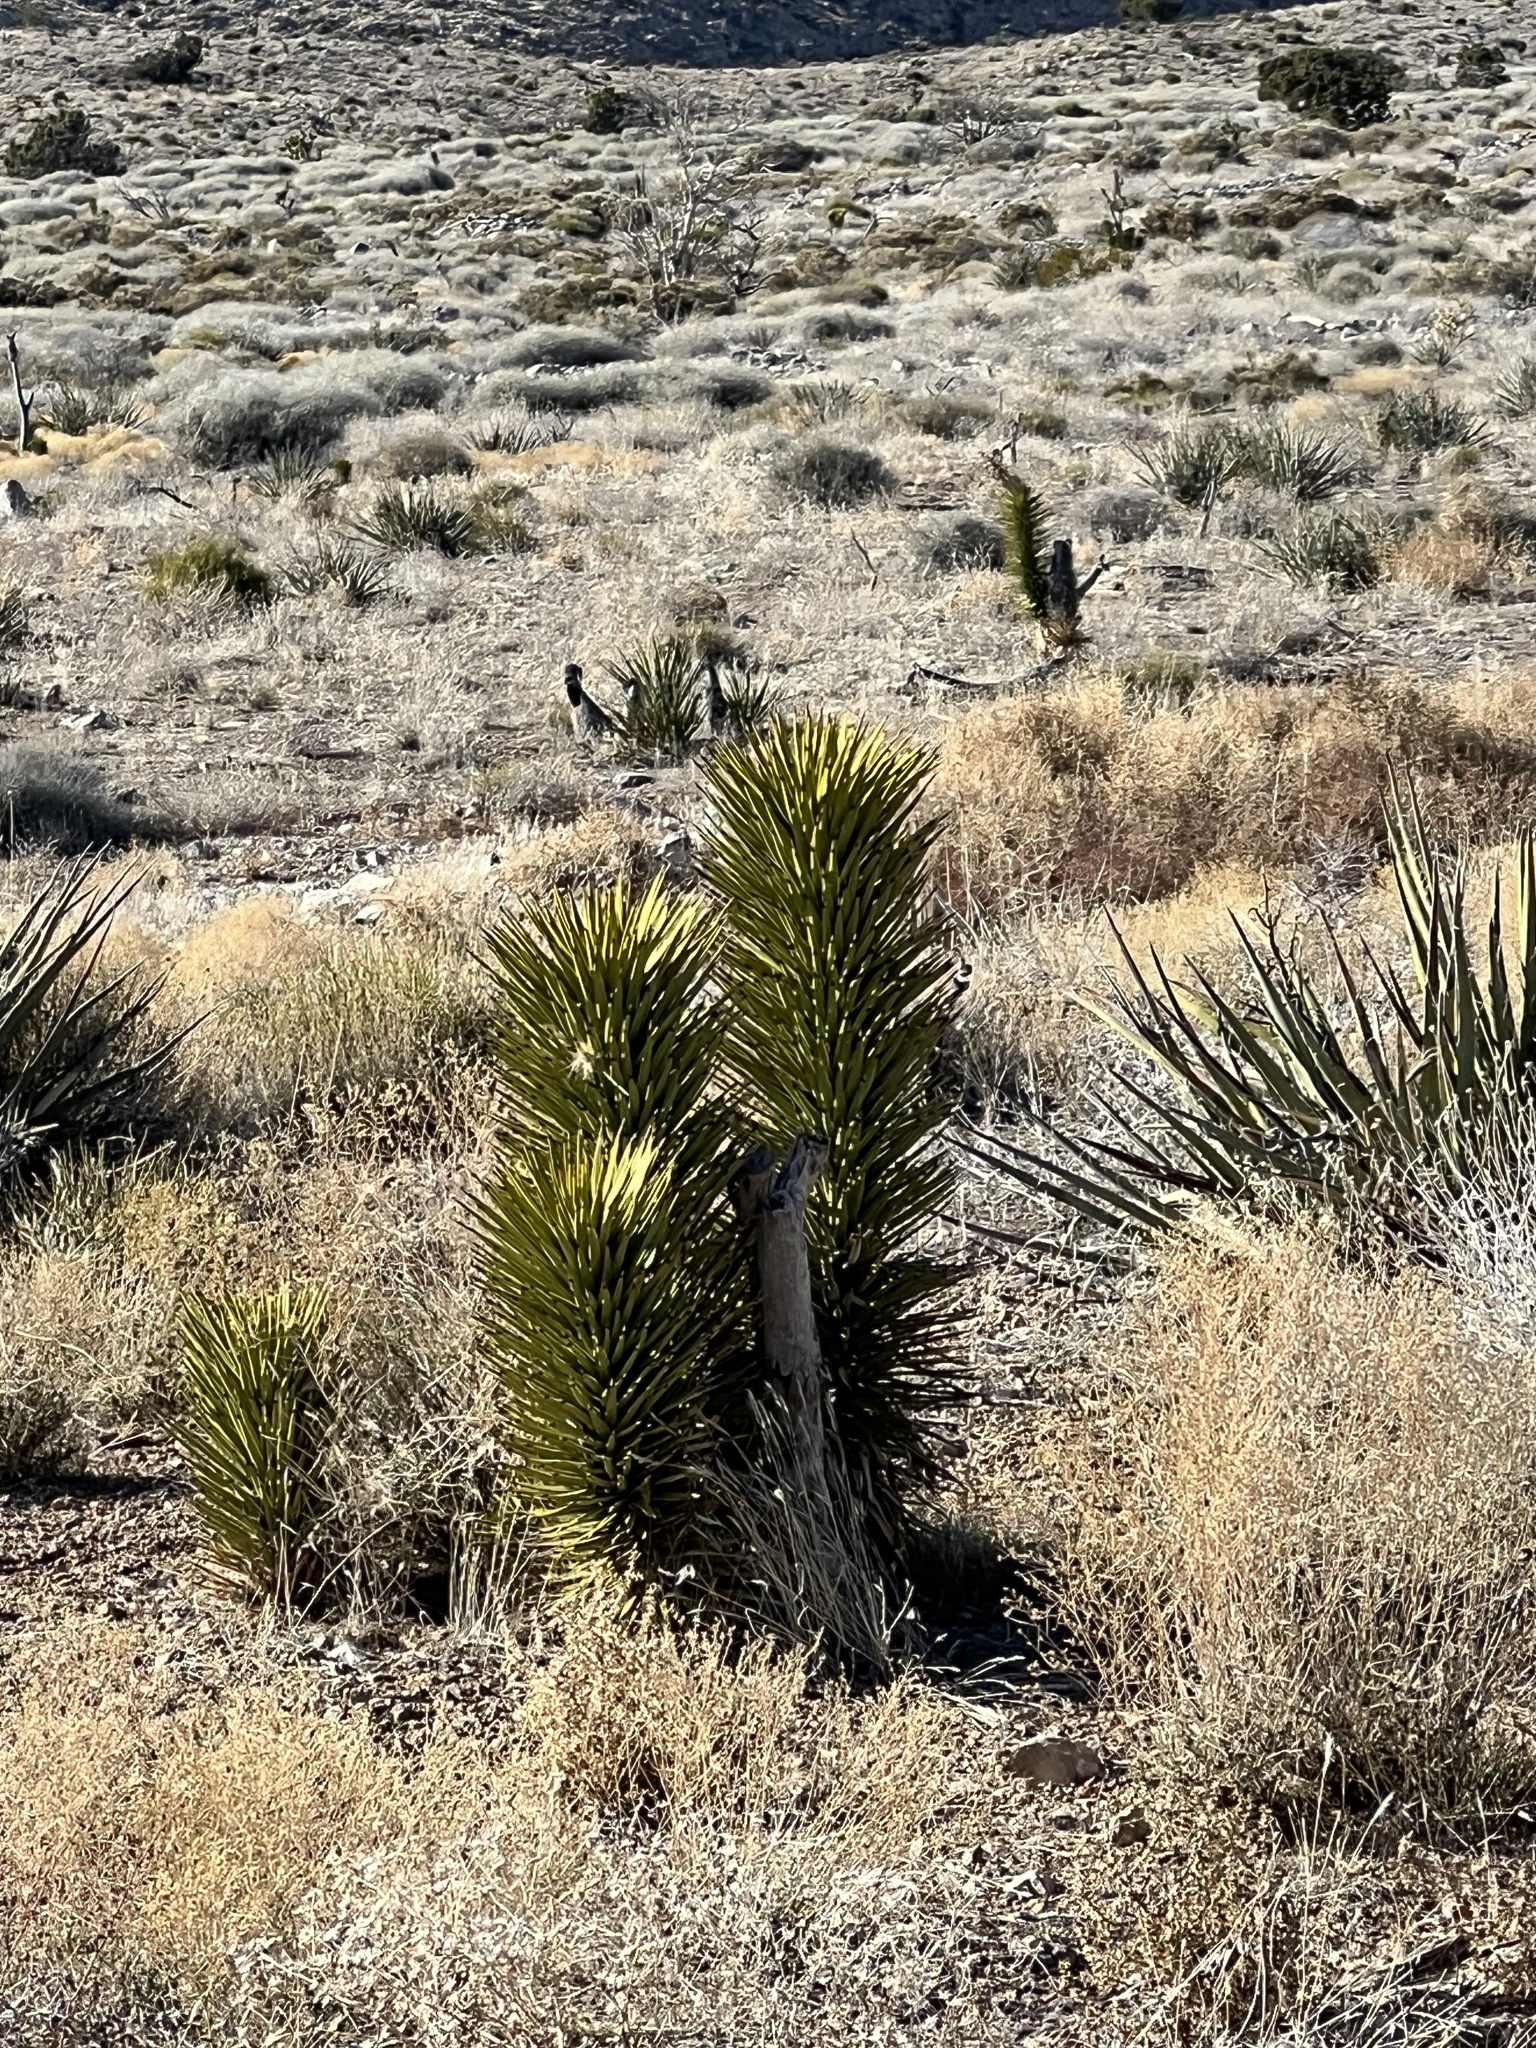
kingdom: Plantae
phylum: Tracheophyta
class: Liliopsida
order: Asparagales
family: Asparagaceae
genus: Yucca
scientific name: Yucca brevifolia
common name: Joshua tree
